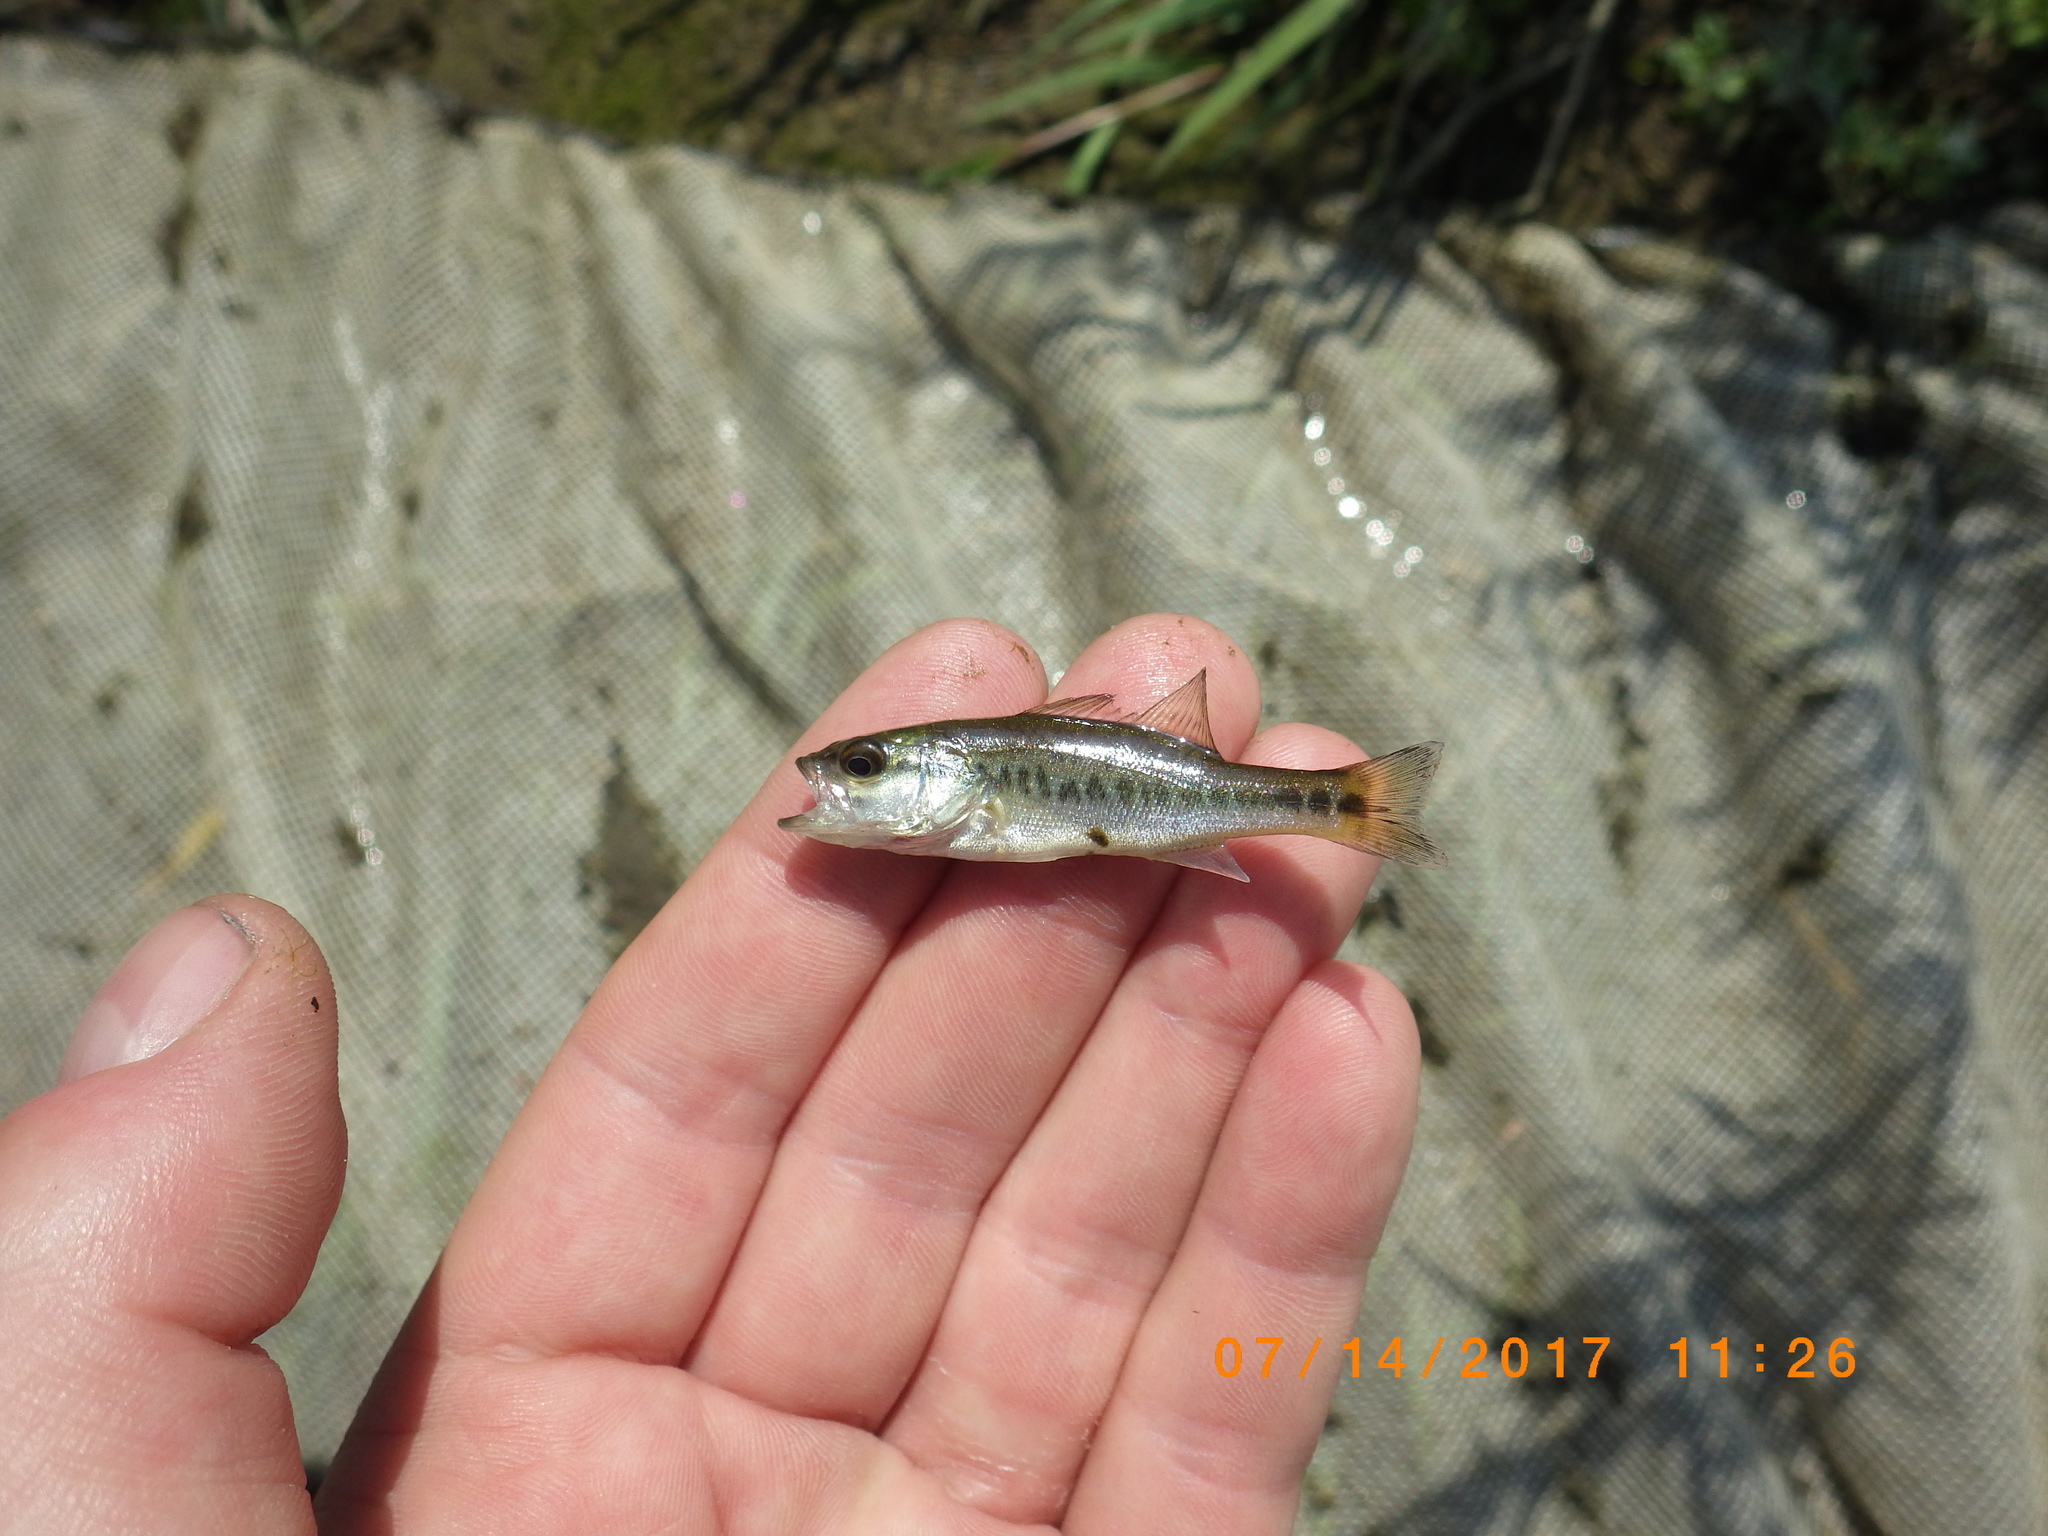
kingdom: Animalia
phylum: Chordata
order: Perciformes
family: Centrarchidae
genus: Micropterus
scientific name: Micropterus
